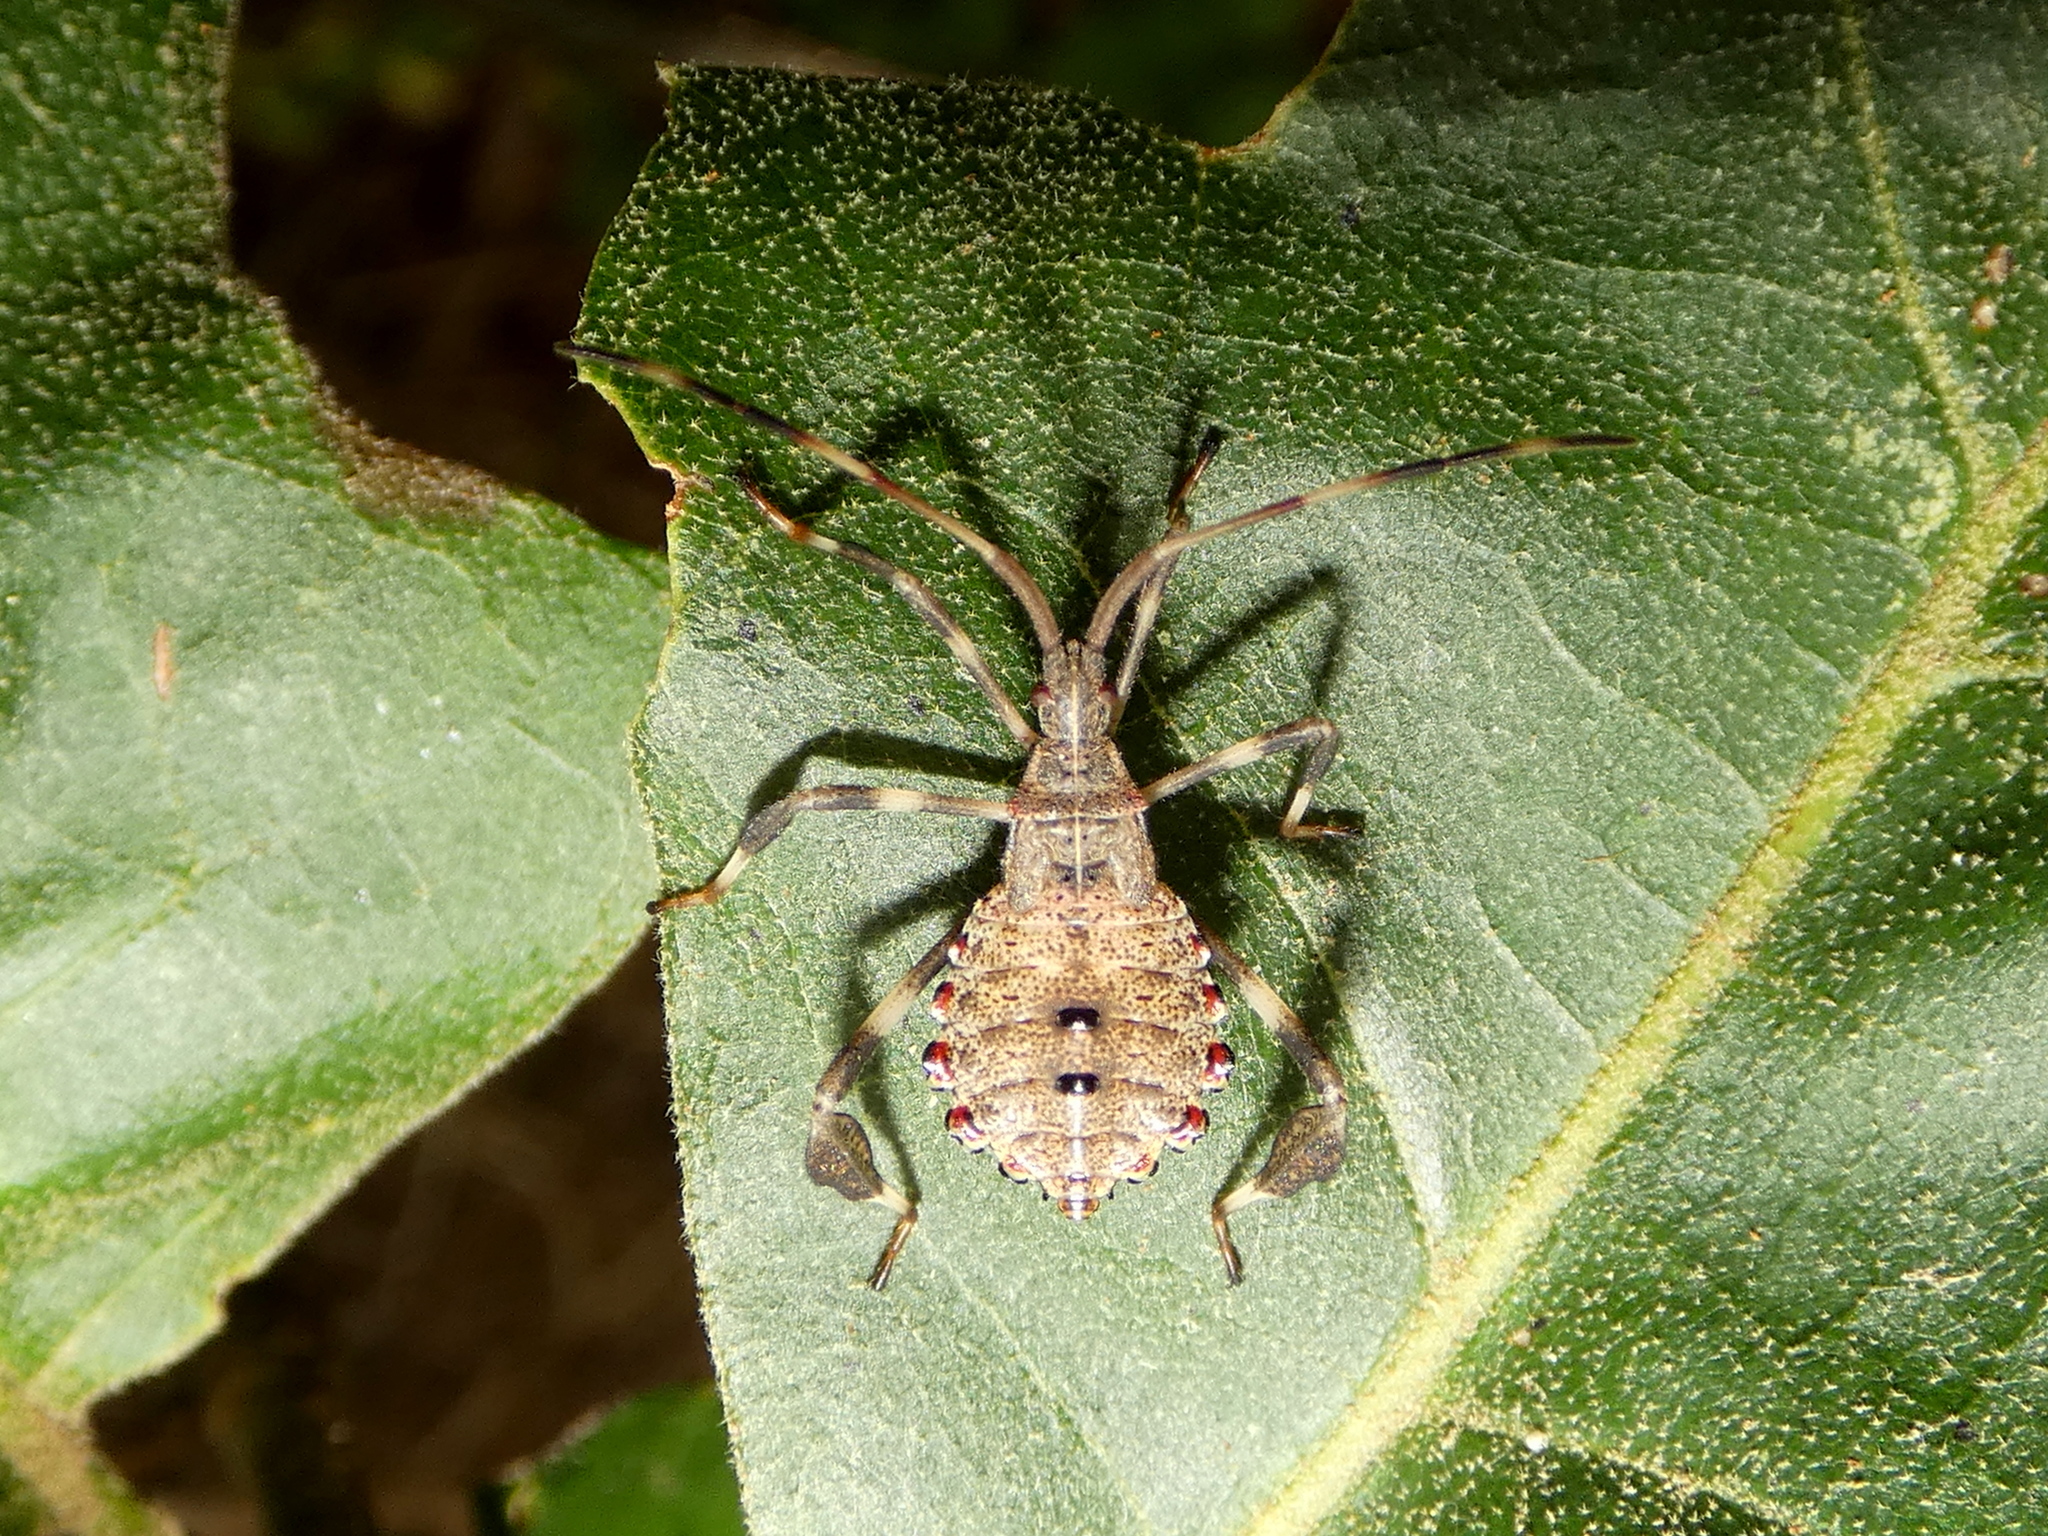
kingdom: Animalia
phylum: Arthropoda
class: Insecta
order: Hemiptera
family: Coreidae
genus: Acanthocephala
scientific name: Acanthocephala terminalis
